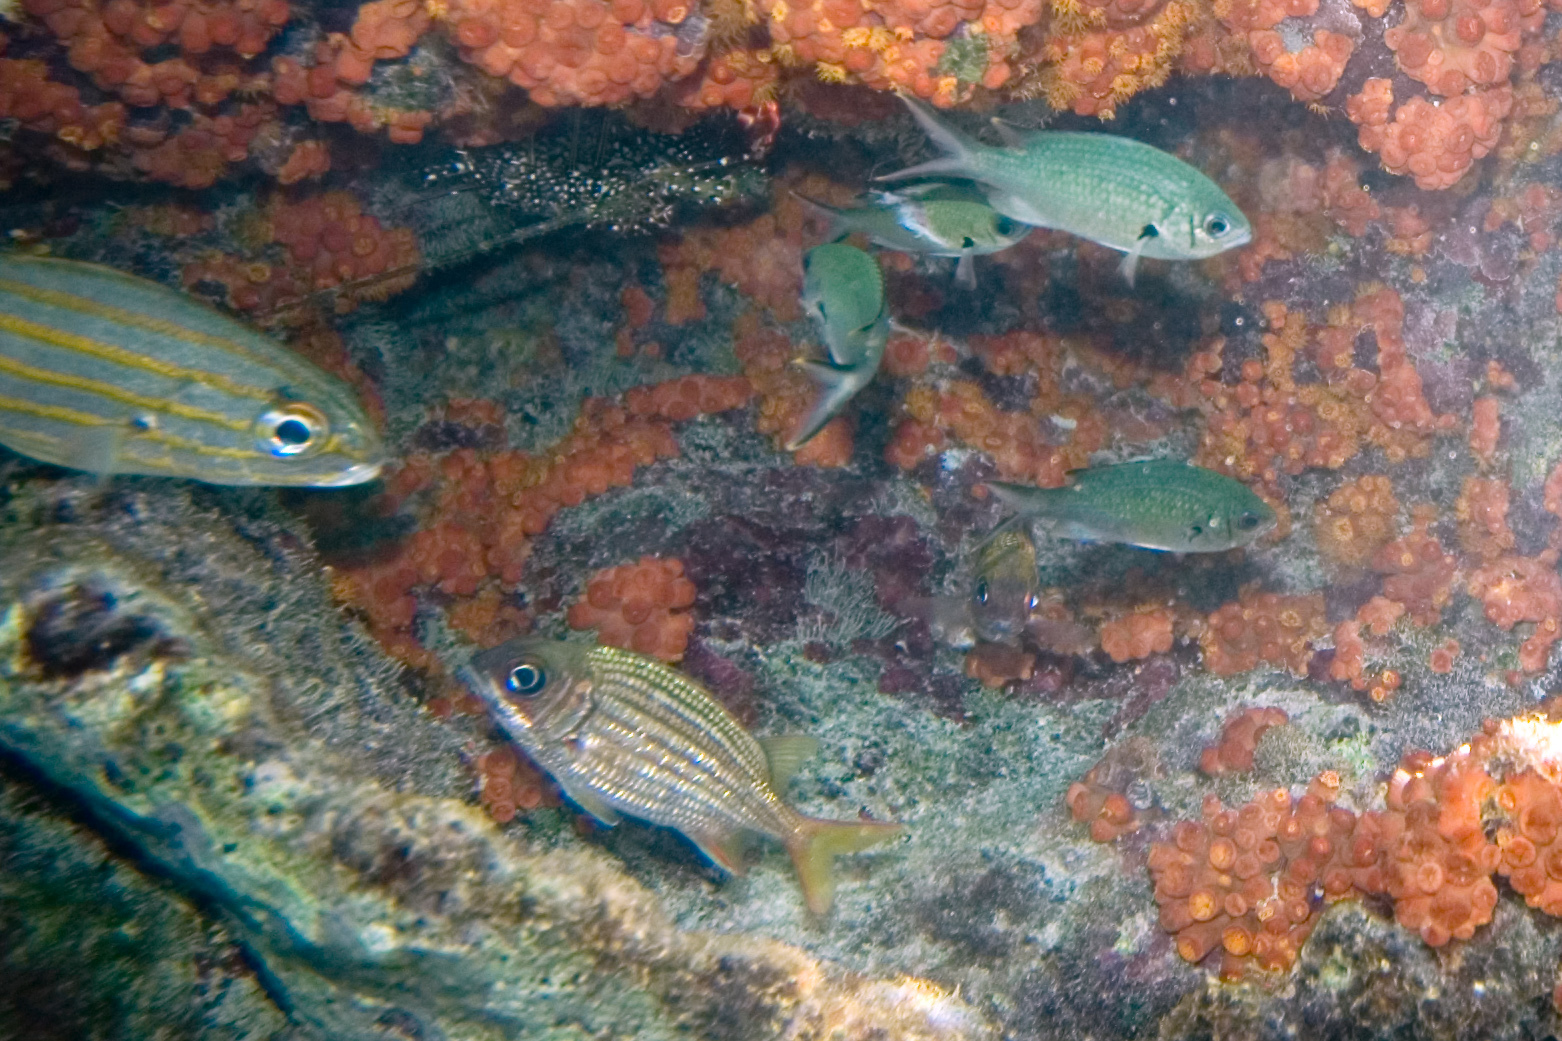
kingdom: Animalia
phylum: Chordata
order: Beryciformes
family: Holocentridae
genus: Neoniphon
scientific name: Neoniphon vexillarium
